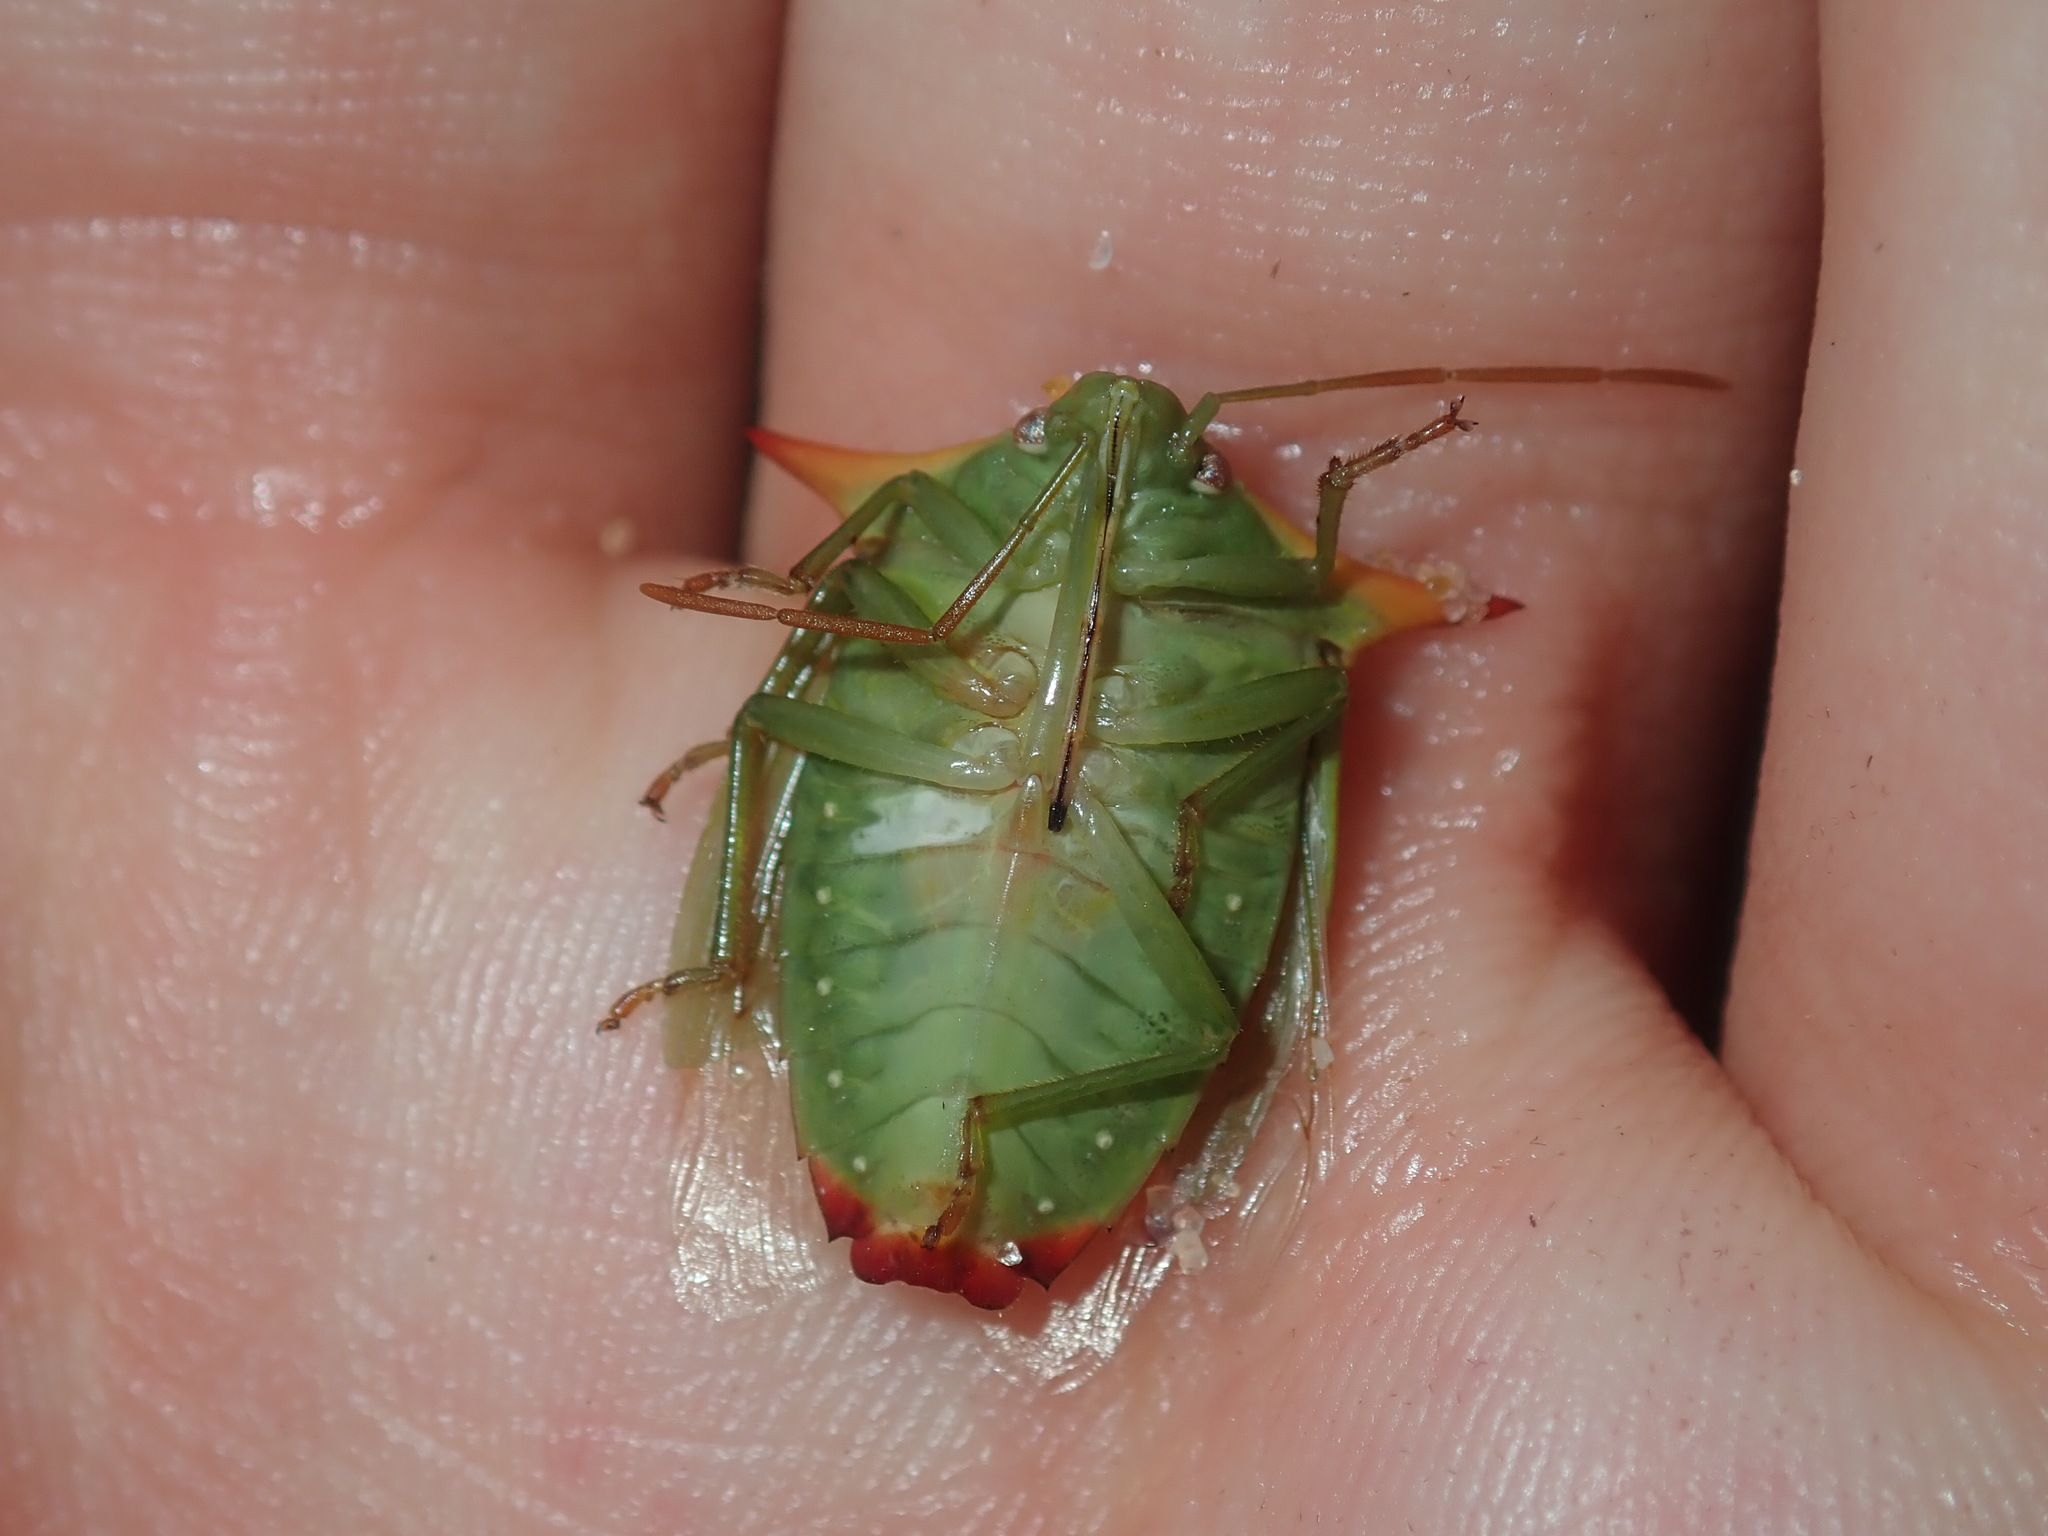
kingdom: Animalia
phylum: Arthropoda
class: Insecta
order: Hemiptera
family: Pentatomidae
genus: Avicenna
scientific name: Avicenna
